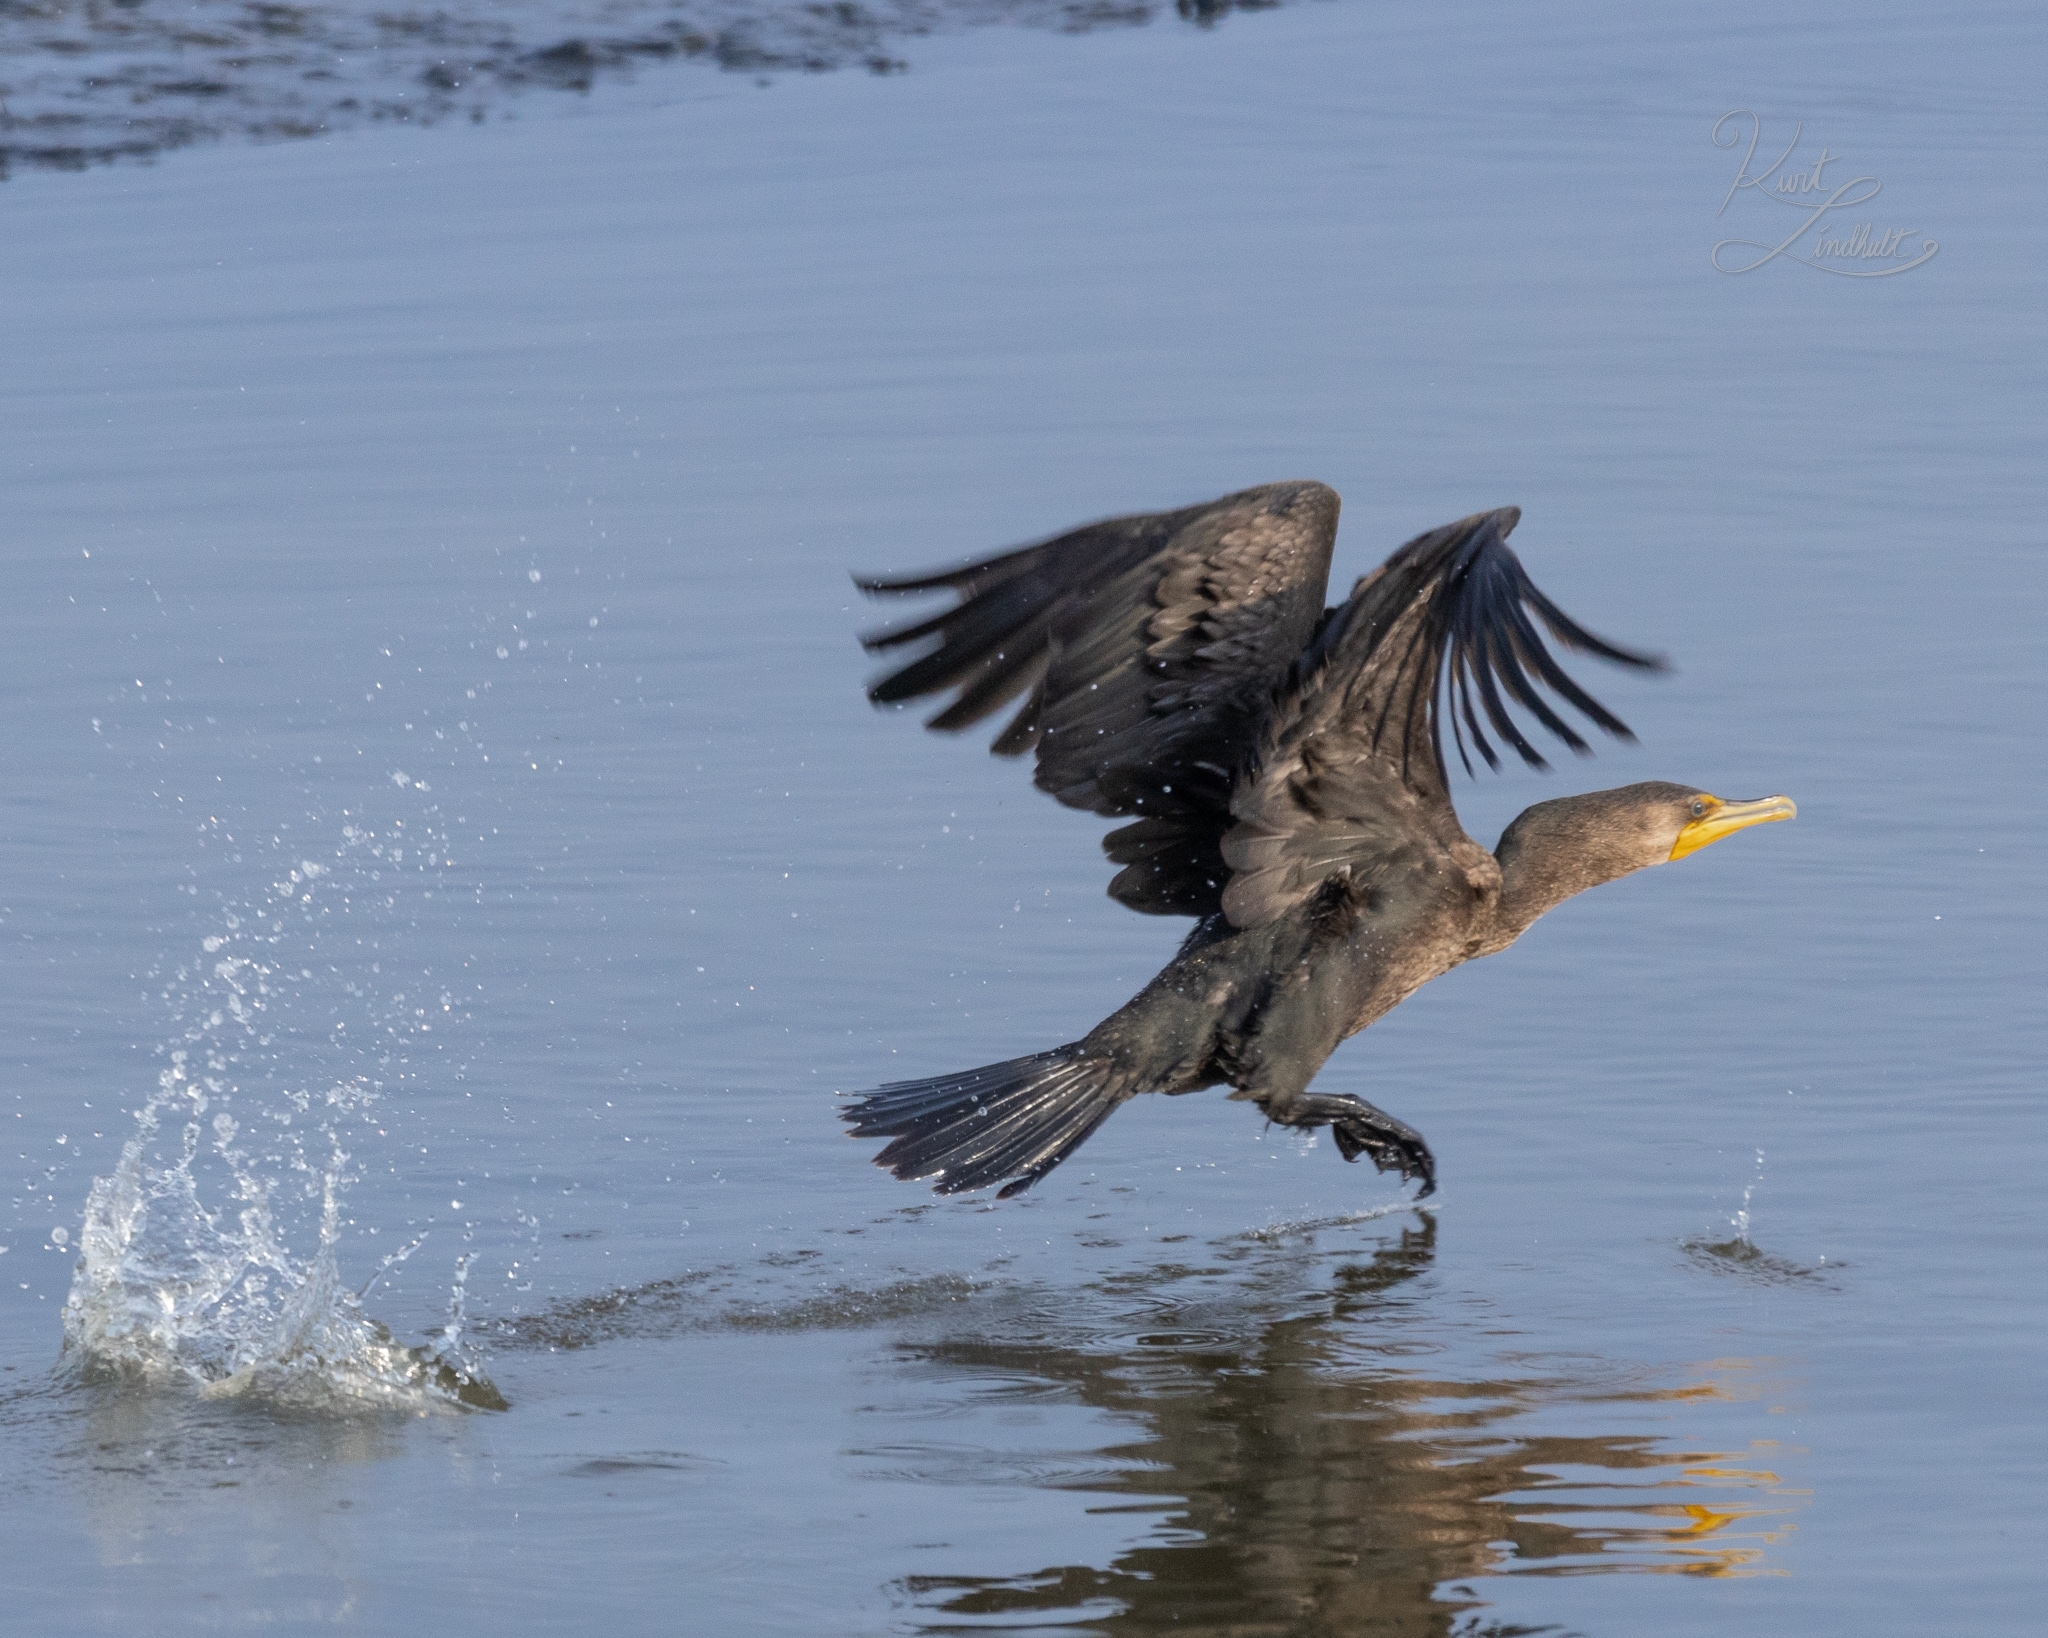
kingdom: Animalia
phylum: Chordata
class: Aves
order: Suliformes
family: Phalacrocoracidae
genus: Phalacrocorax
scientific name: Phalacrocorax auritus
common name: Double-crested cormorant
